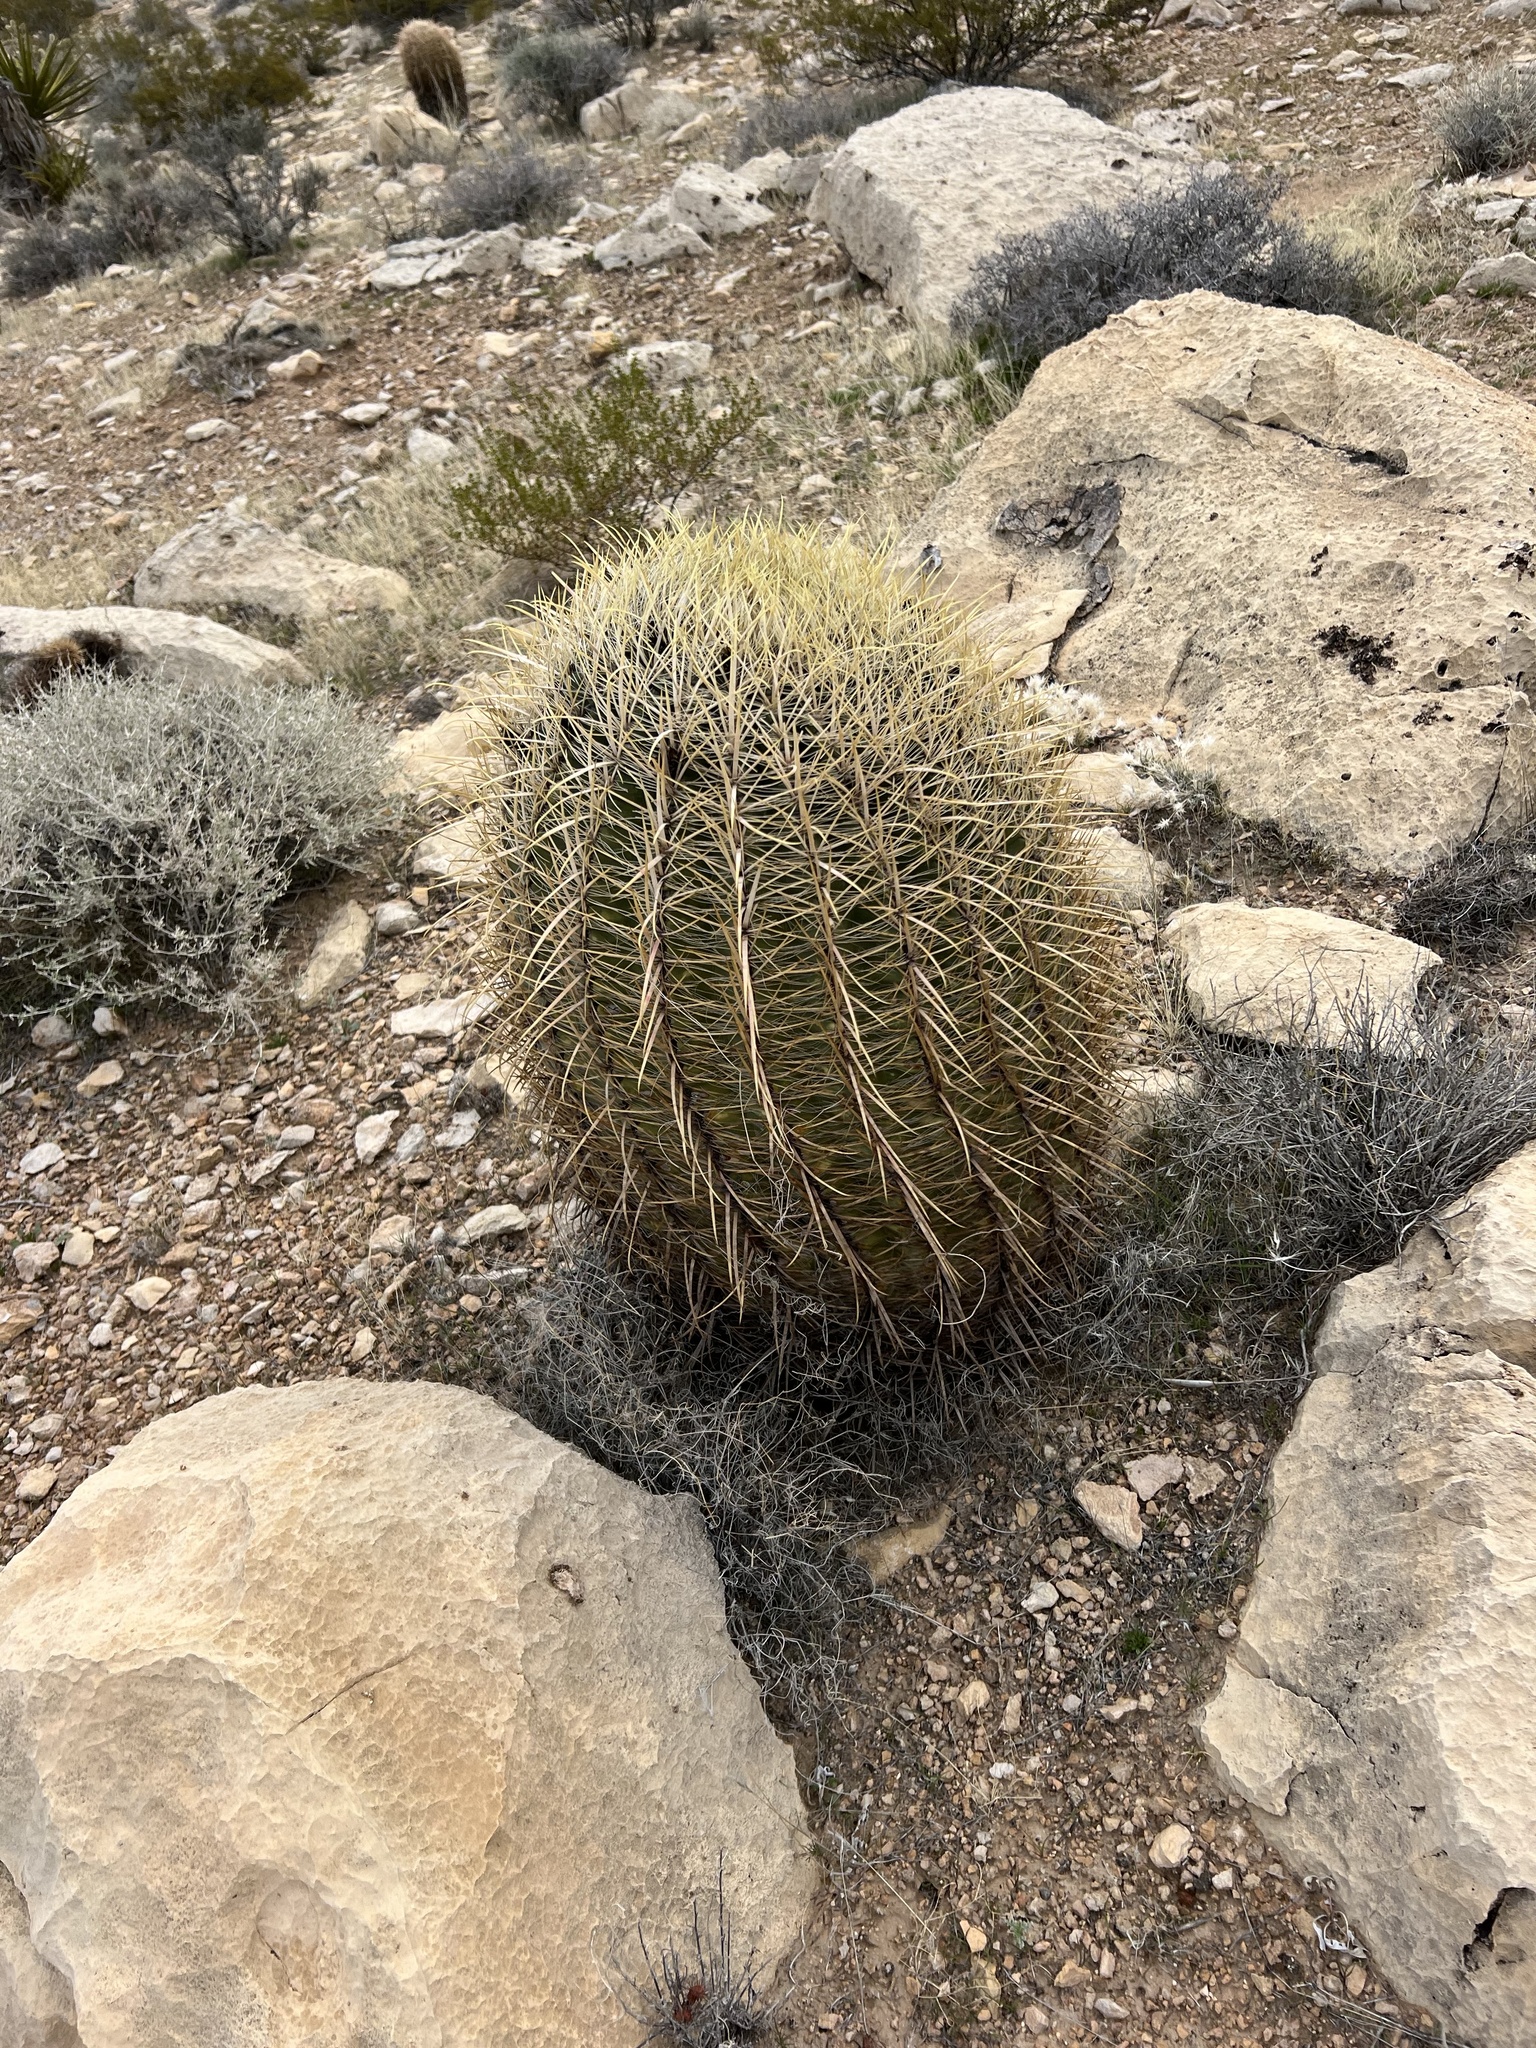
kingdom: Plantae
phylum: Tracheophyta
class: Magnoliopsida
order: Caryophyllales
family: Cactaceae
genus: Ferocactus
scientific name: Ferocactus cylindraceus
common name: California barrel cactus
